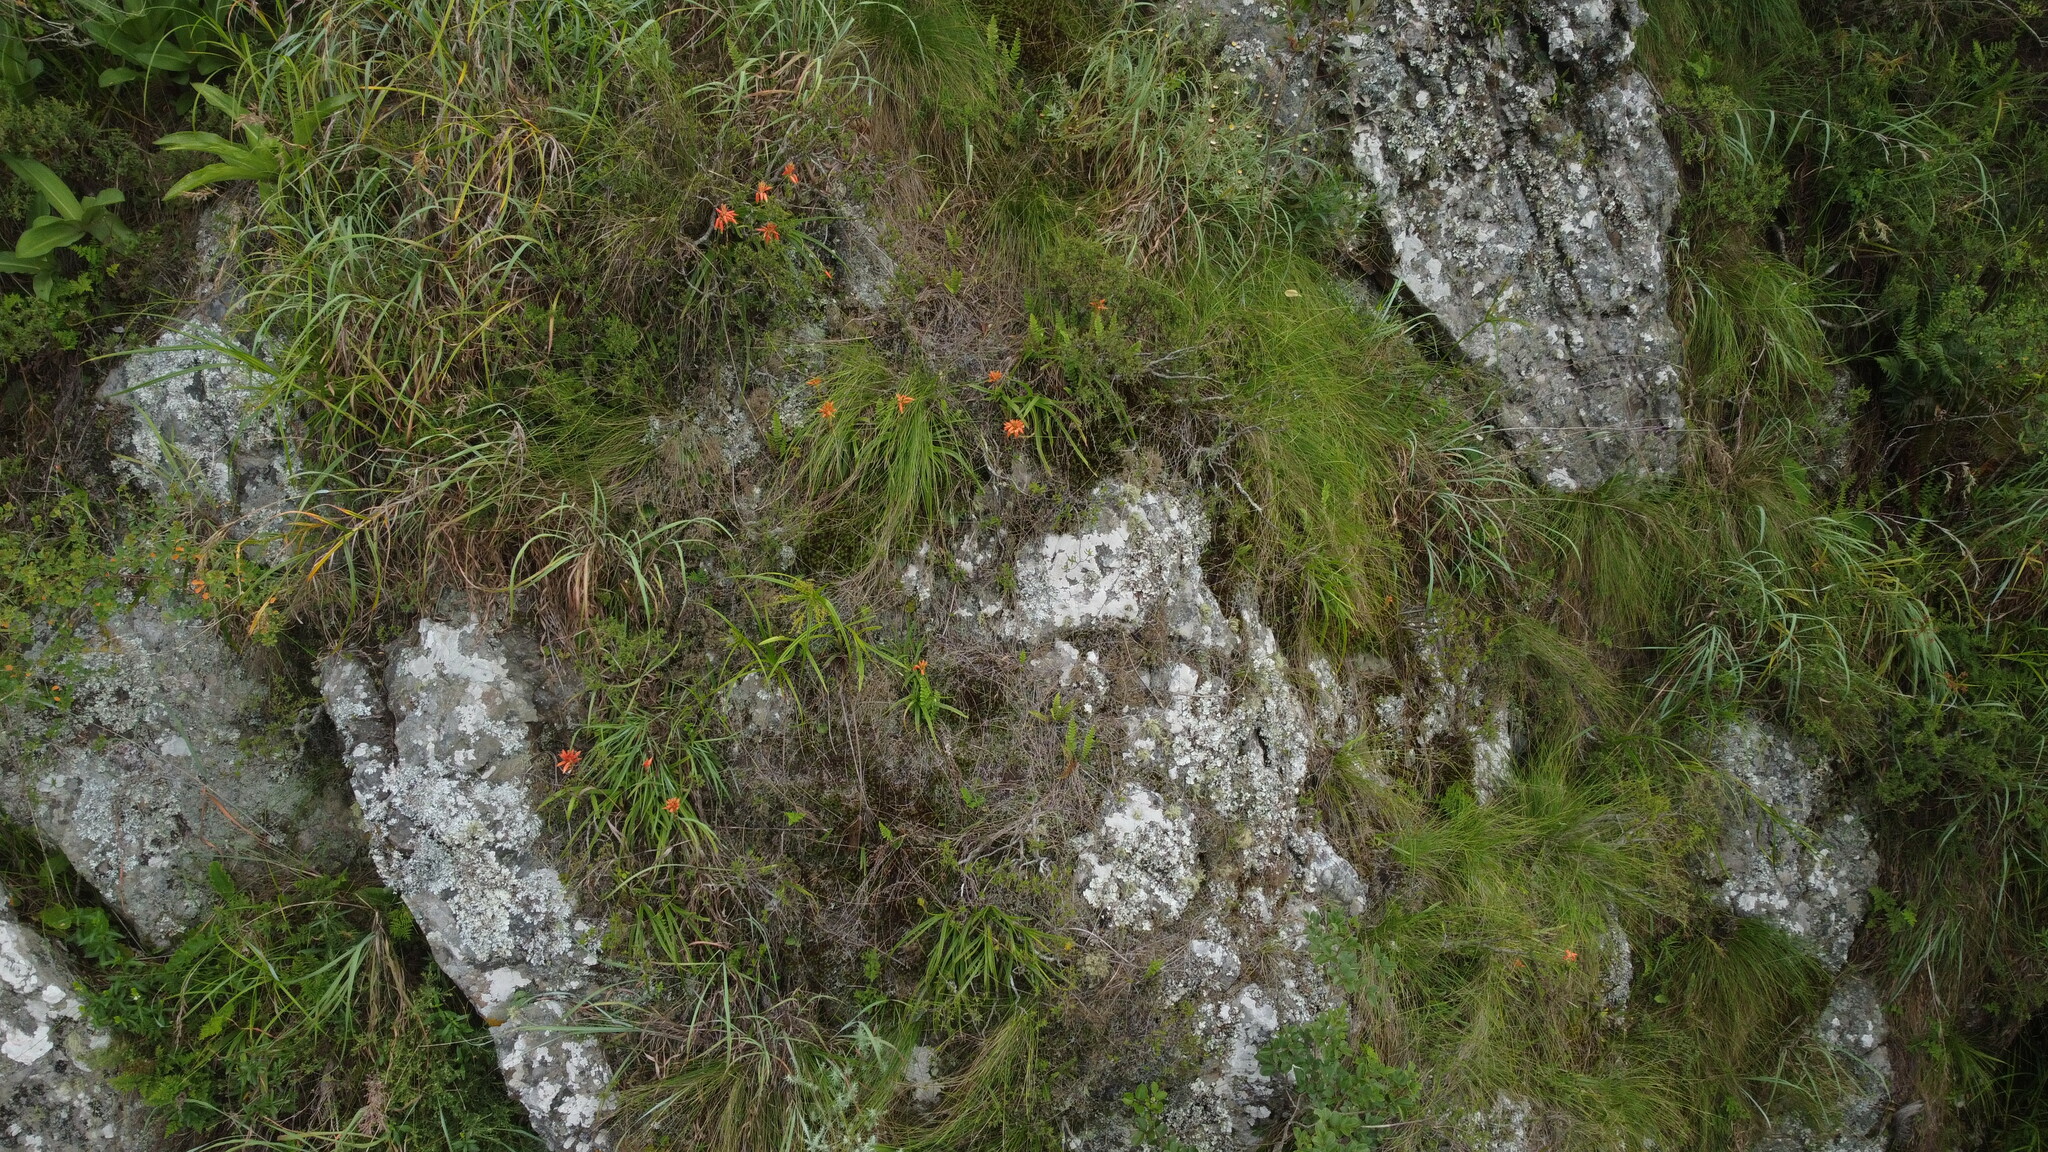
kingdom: Plantae
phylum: Tracheophyta
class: Liliopsida
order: Asparagales
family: Asphodelaceae
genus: Aloe
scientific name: Aloe condyae
